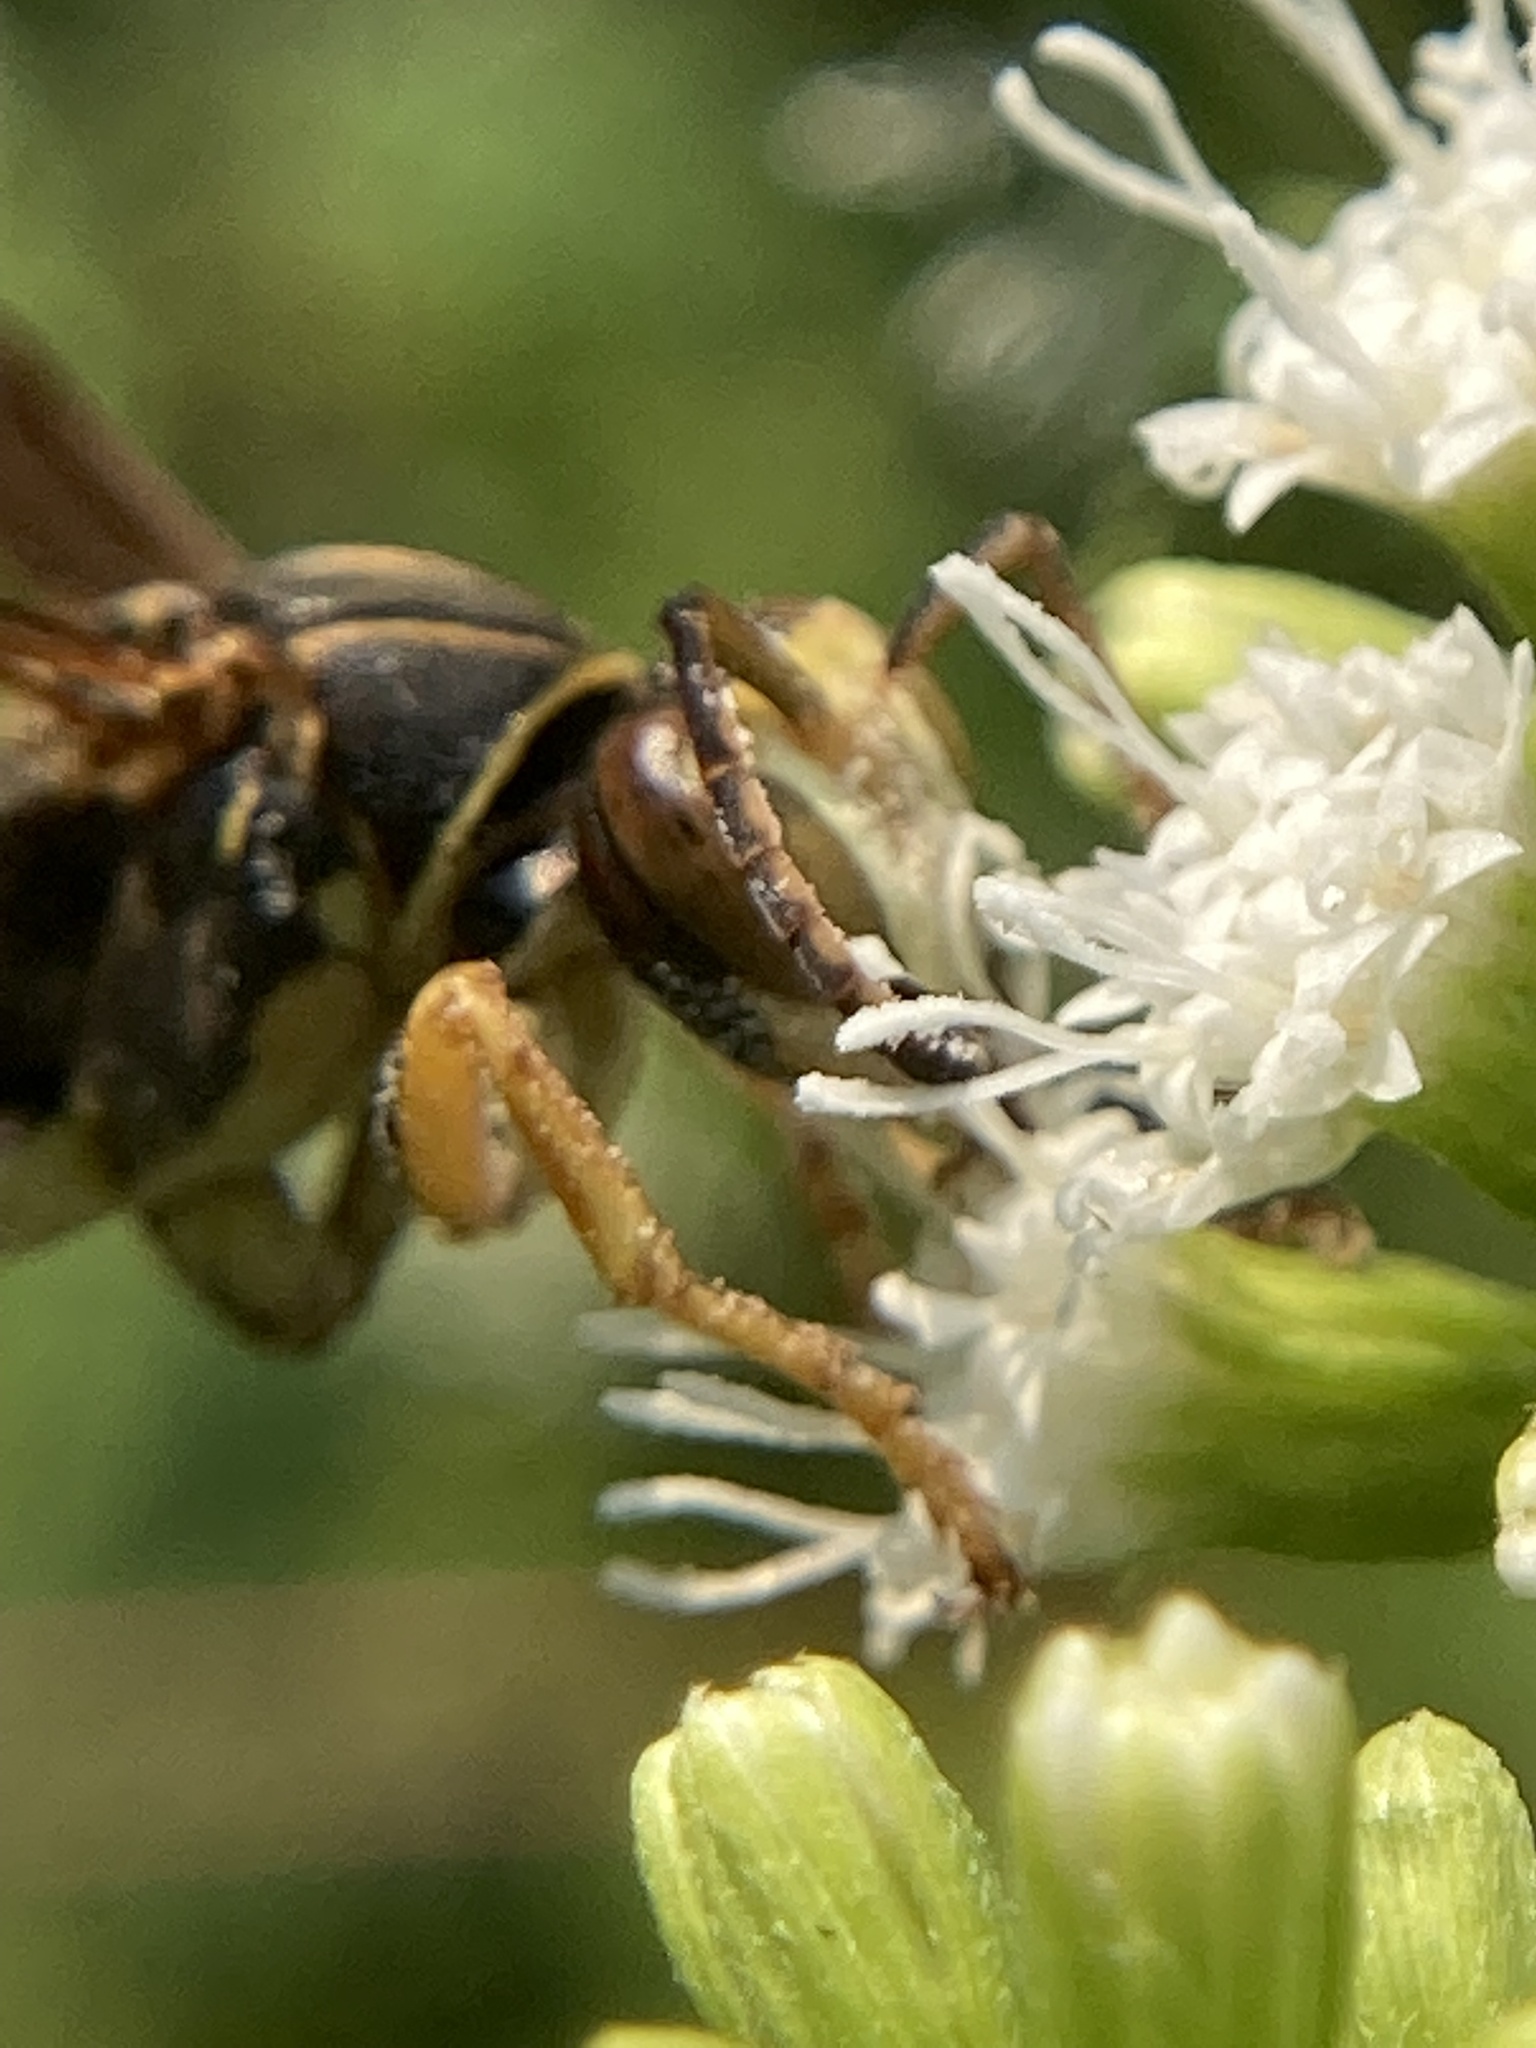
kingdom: Animalia
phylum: Arthropoda
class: Insecta
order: Hymenoptera
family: Eumenidae
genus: Polistes
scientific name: Polistes fuscatus
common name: Dark paper wasp
